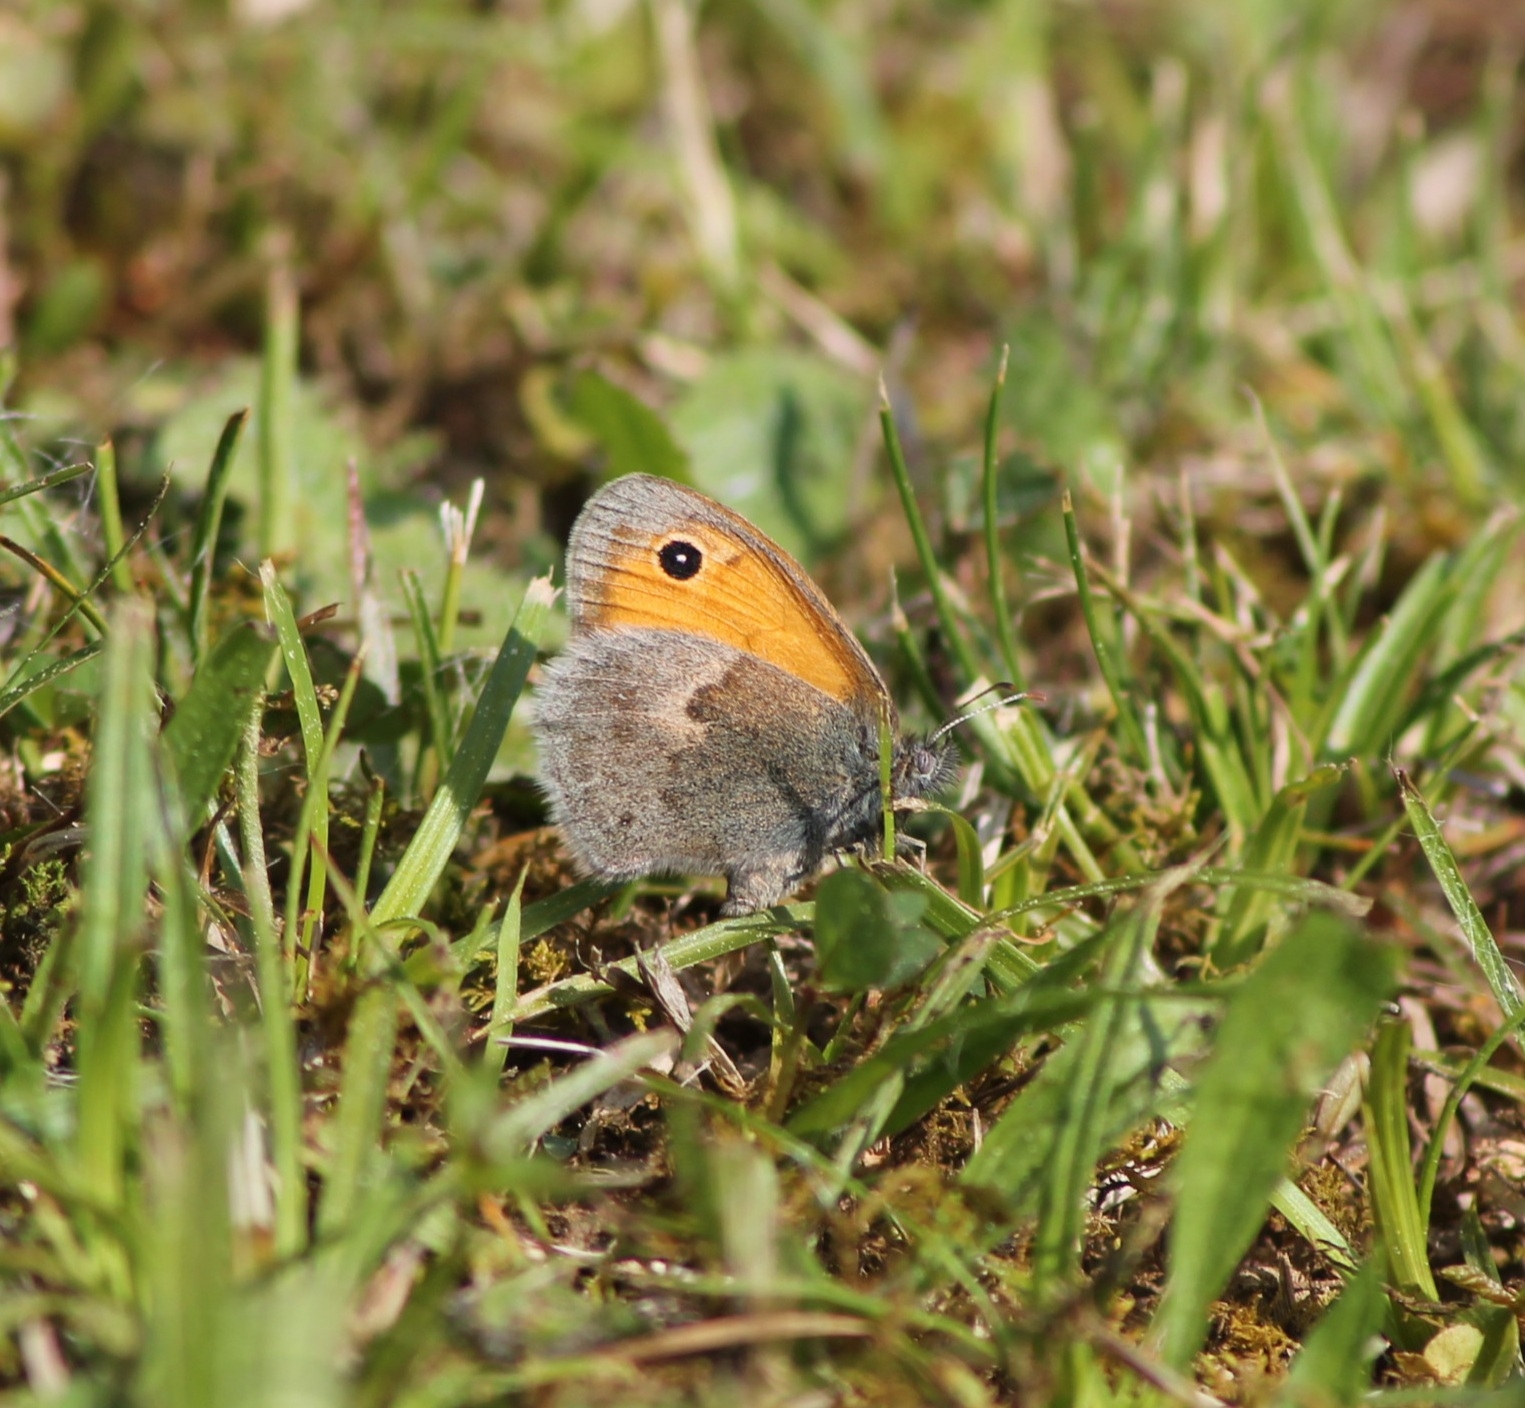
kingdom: Animalia
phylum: Arthropoda
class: Insecta
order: Lepidoptera
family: Nymphalidae
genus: Coenonympha
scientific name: Coenonympha pamphilus
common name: Small heath
